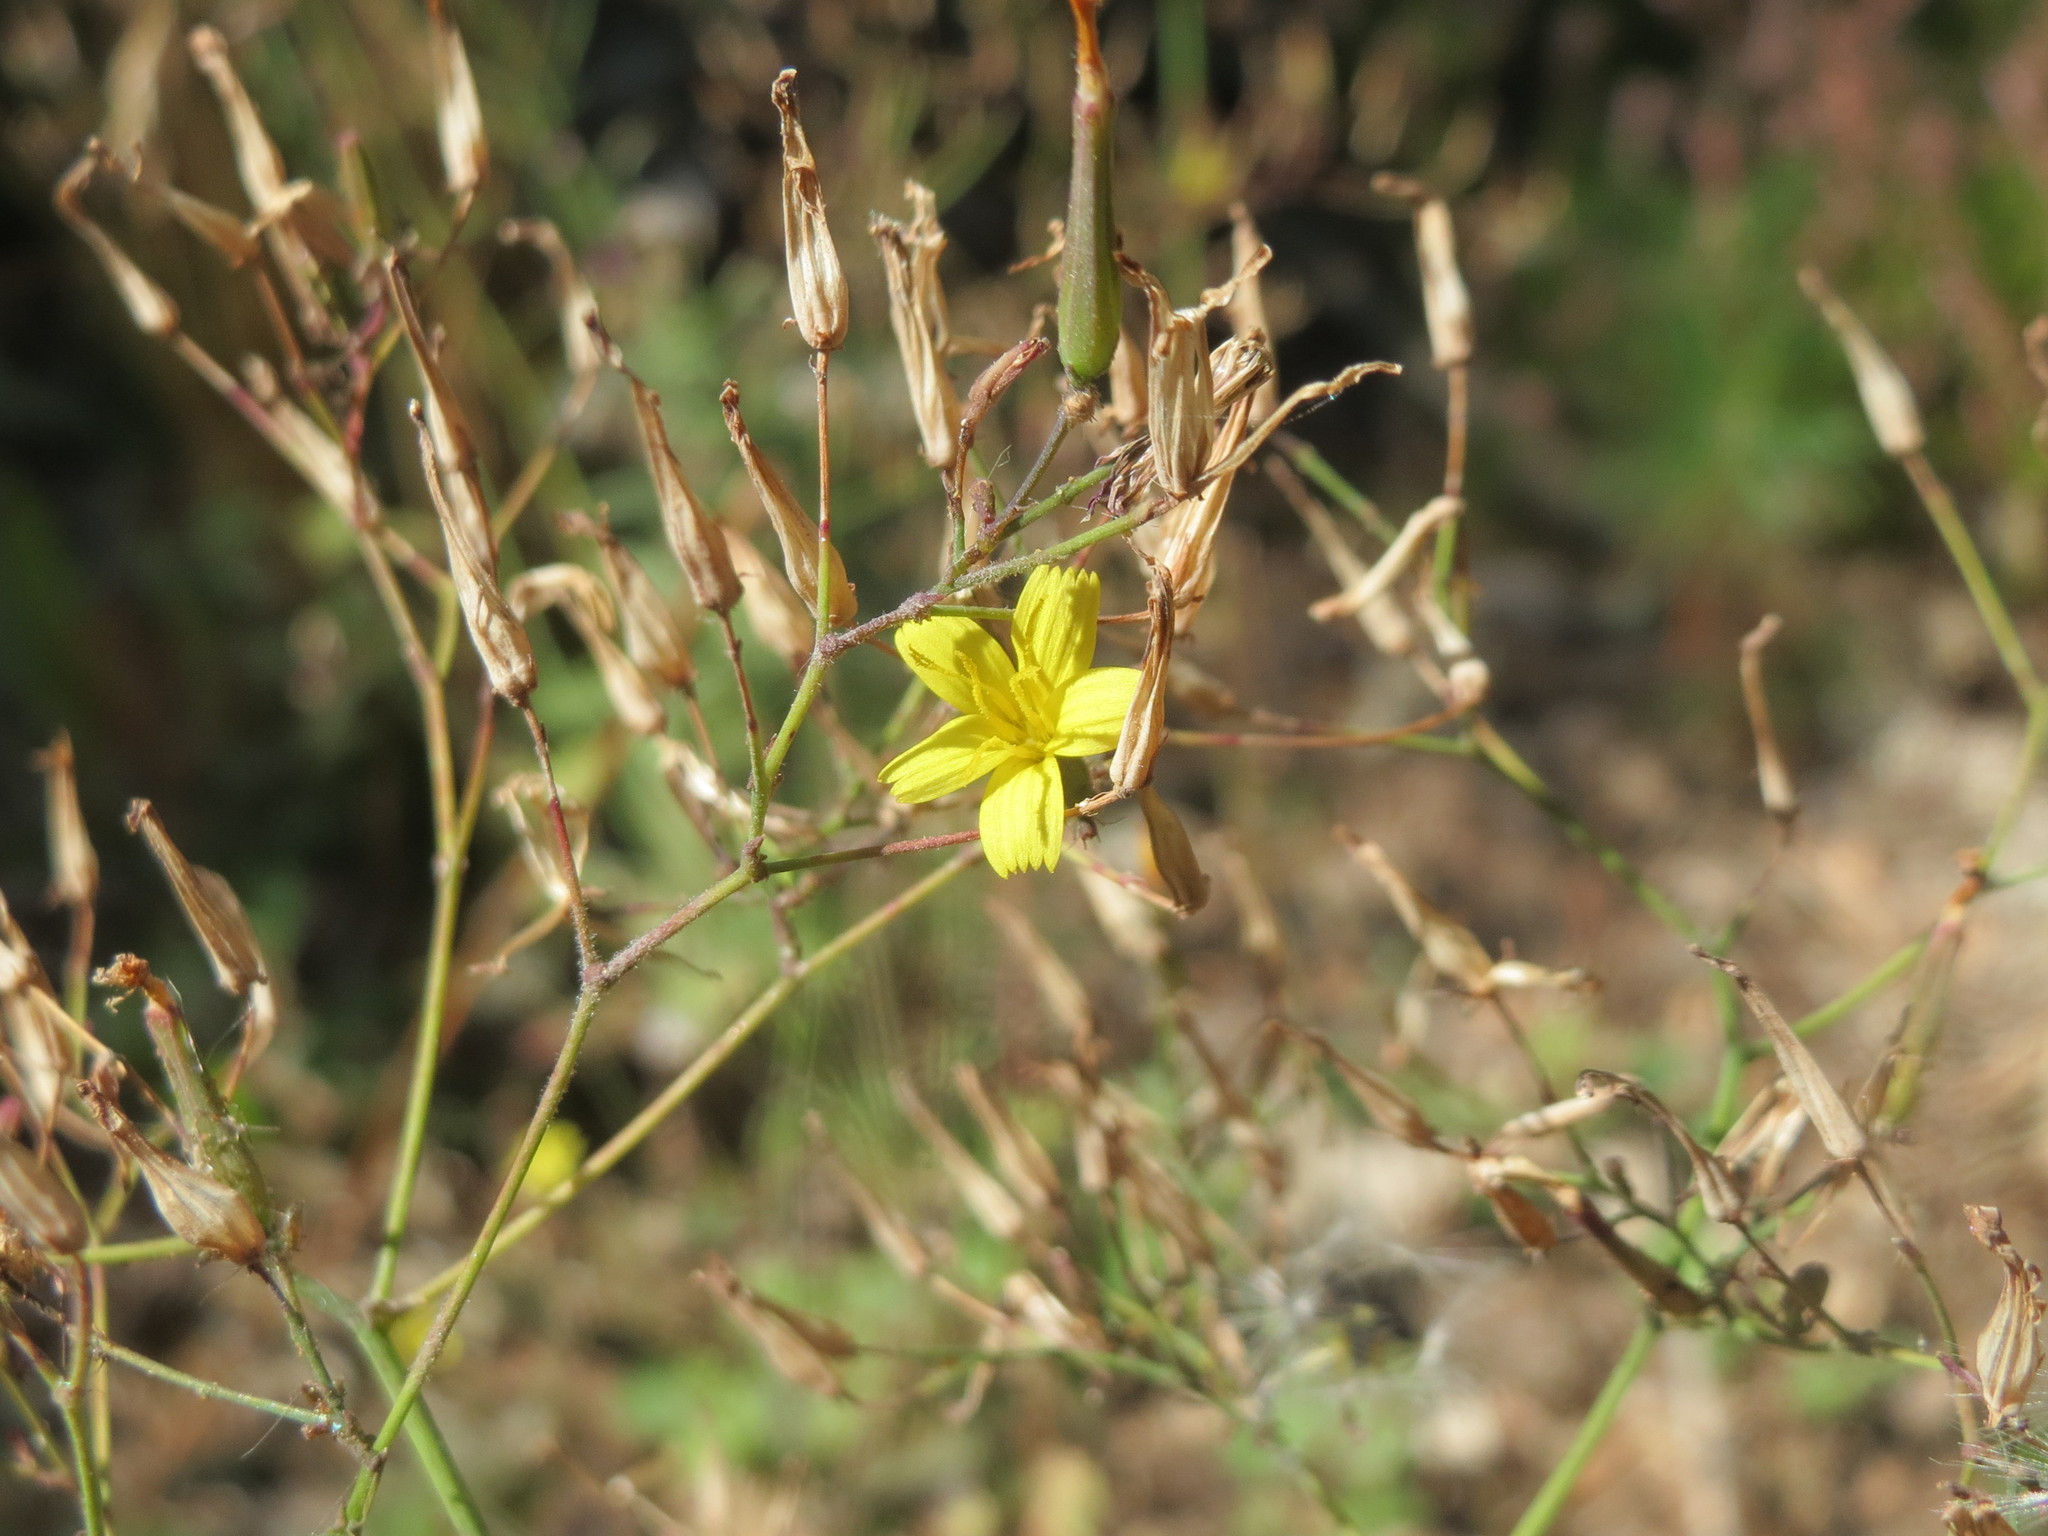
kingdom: Plantae
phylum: Tracheophyta
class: Magnoliopsida
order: Asterales
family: Asteraceae
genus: Mycelis
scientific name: Mycelis muralis
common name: Wall lettuce
